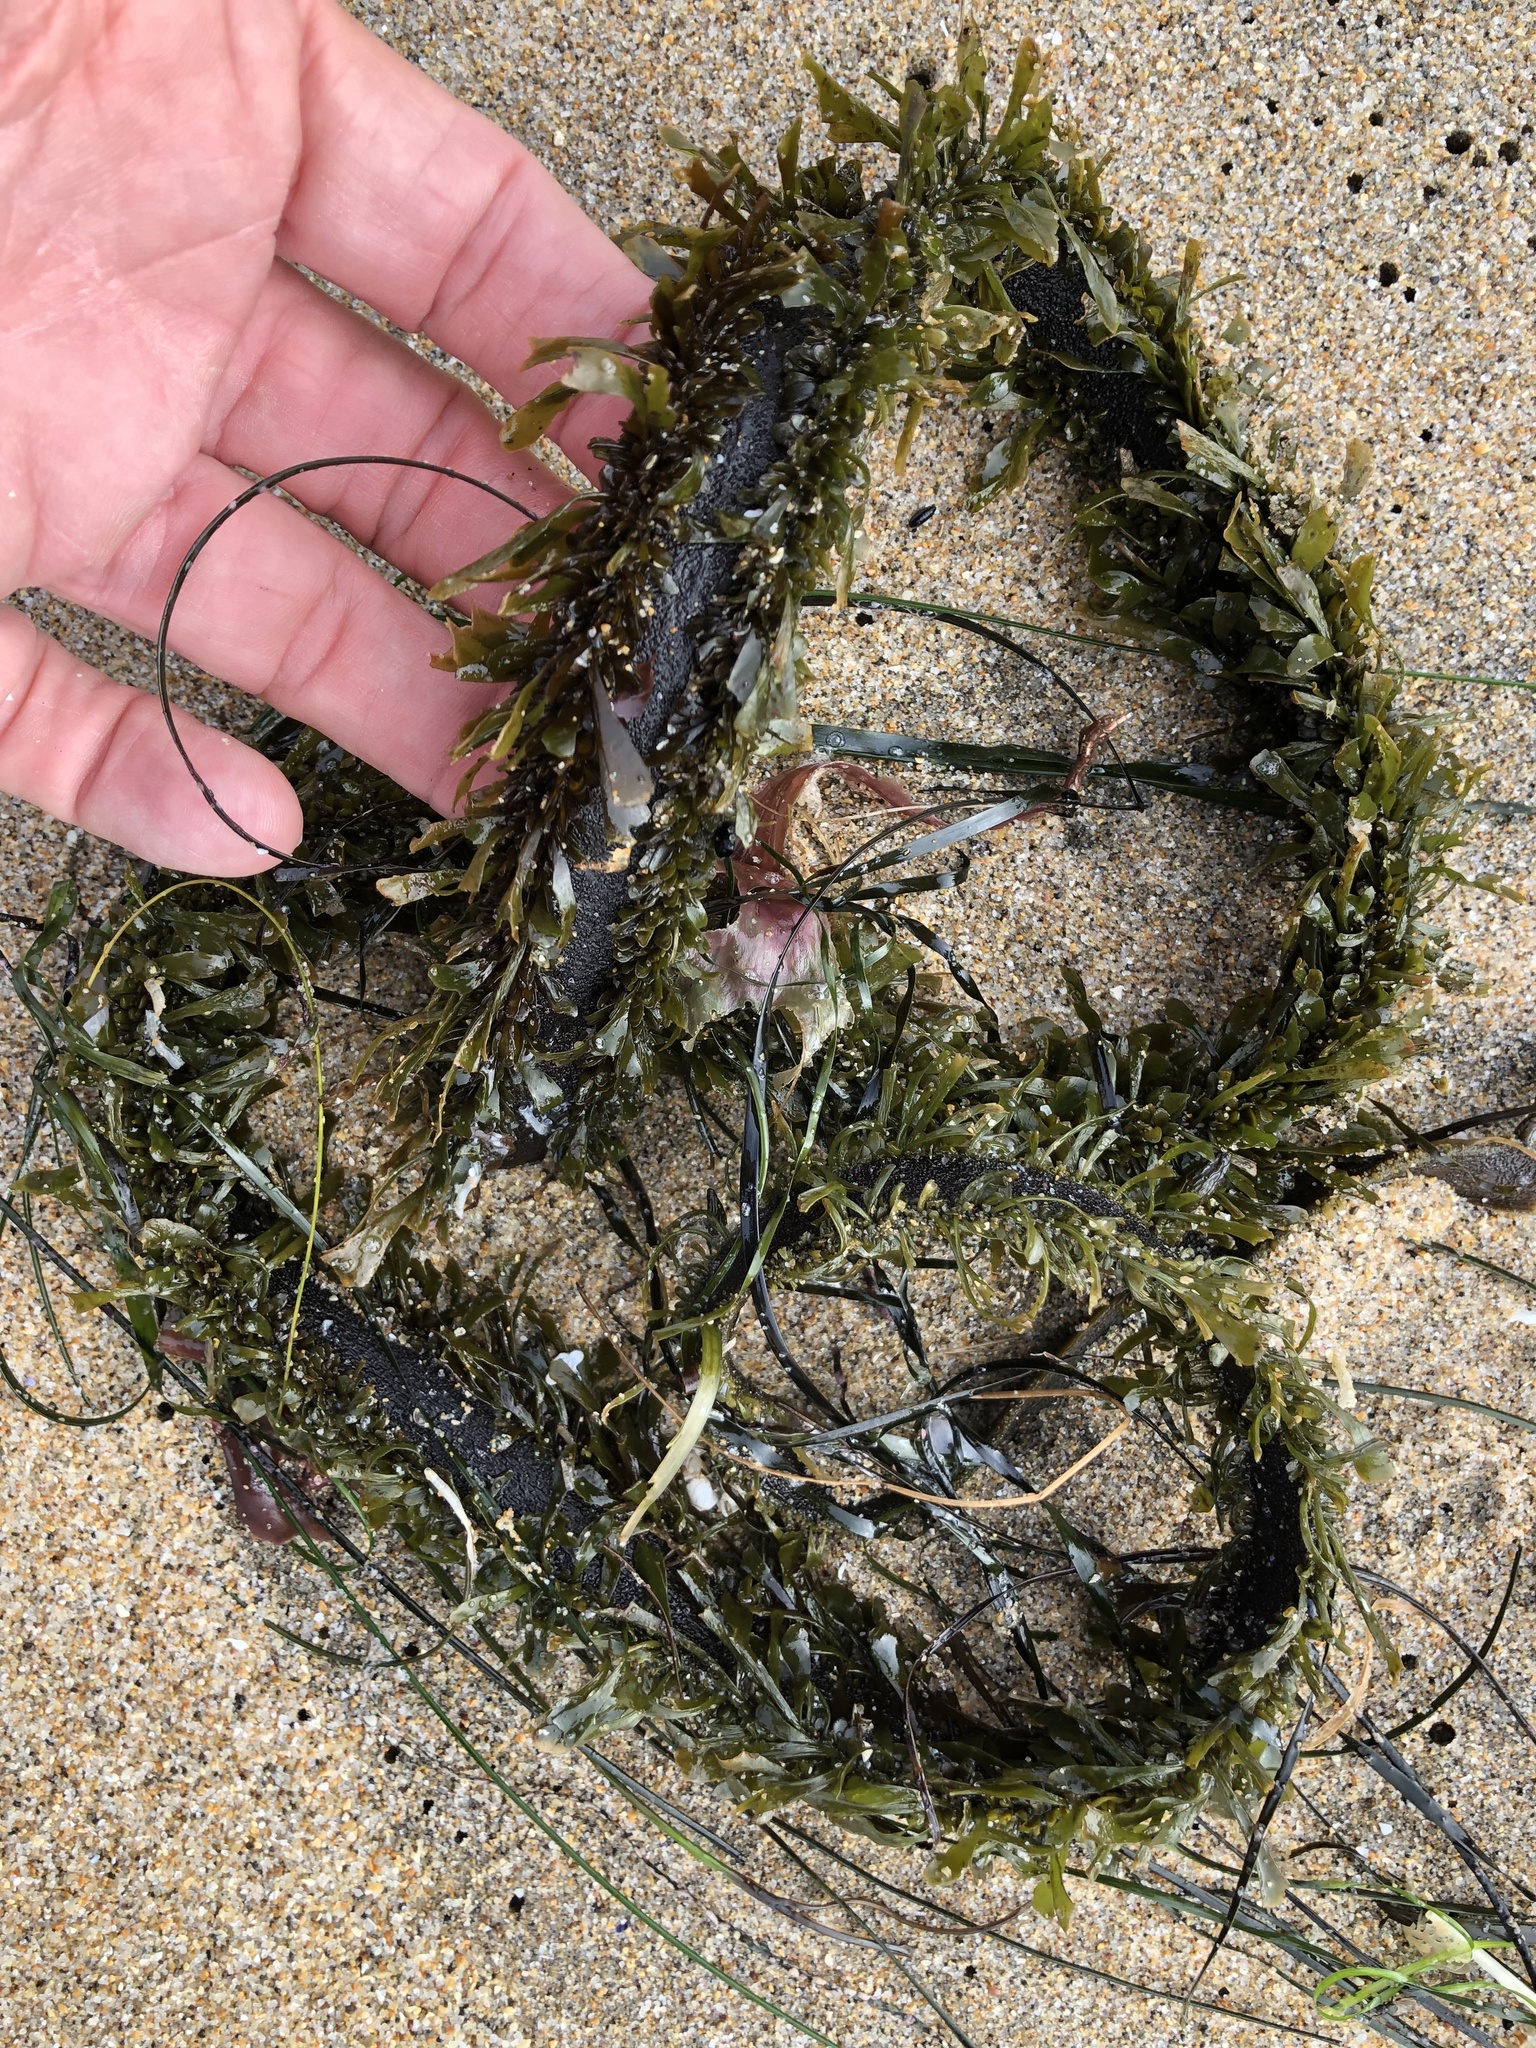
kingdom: Chromista
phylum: Ochrophyta
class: Phaeophyceae
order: Laminariales
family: Lessoniaceae
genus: Egregia
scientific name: Egregia menziesii
